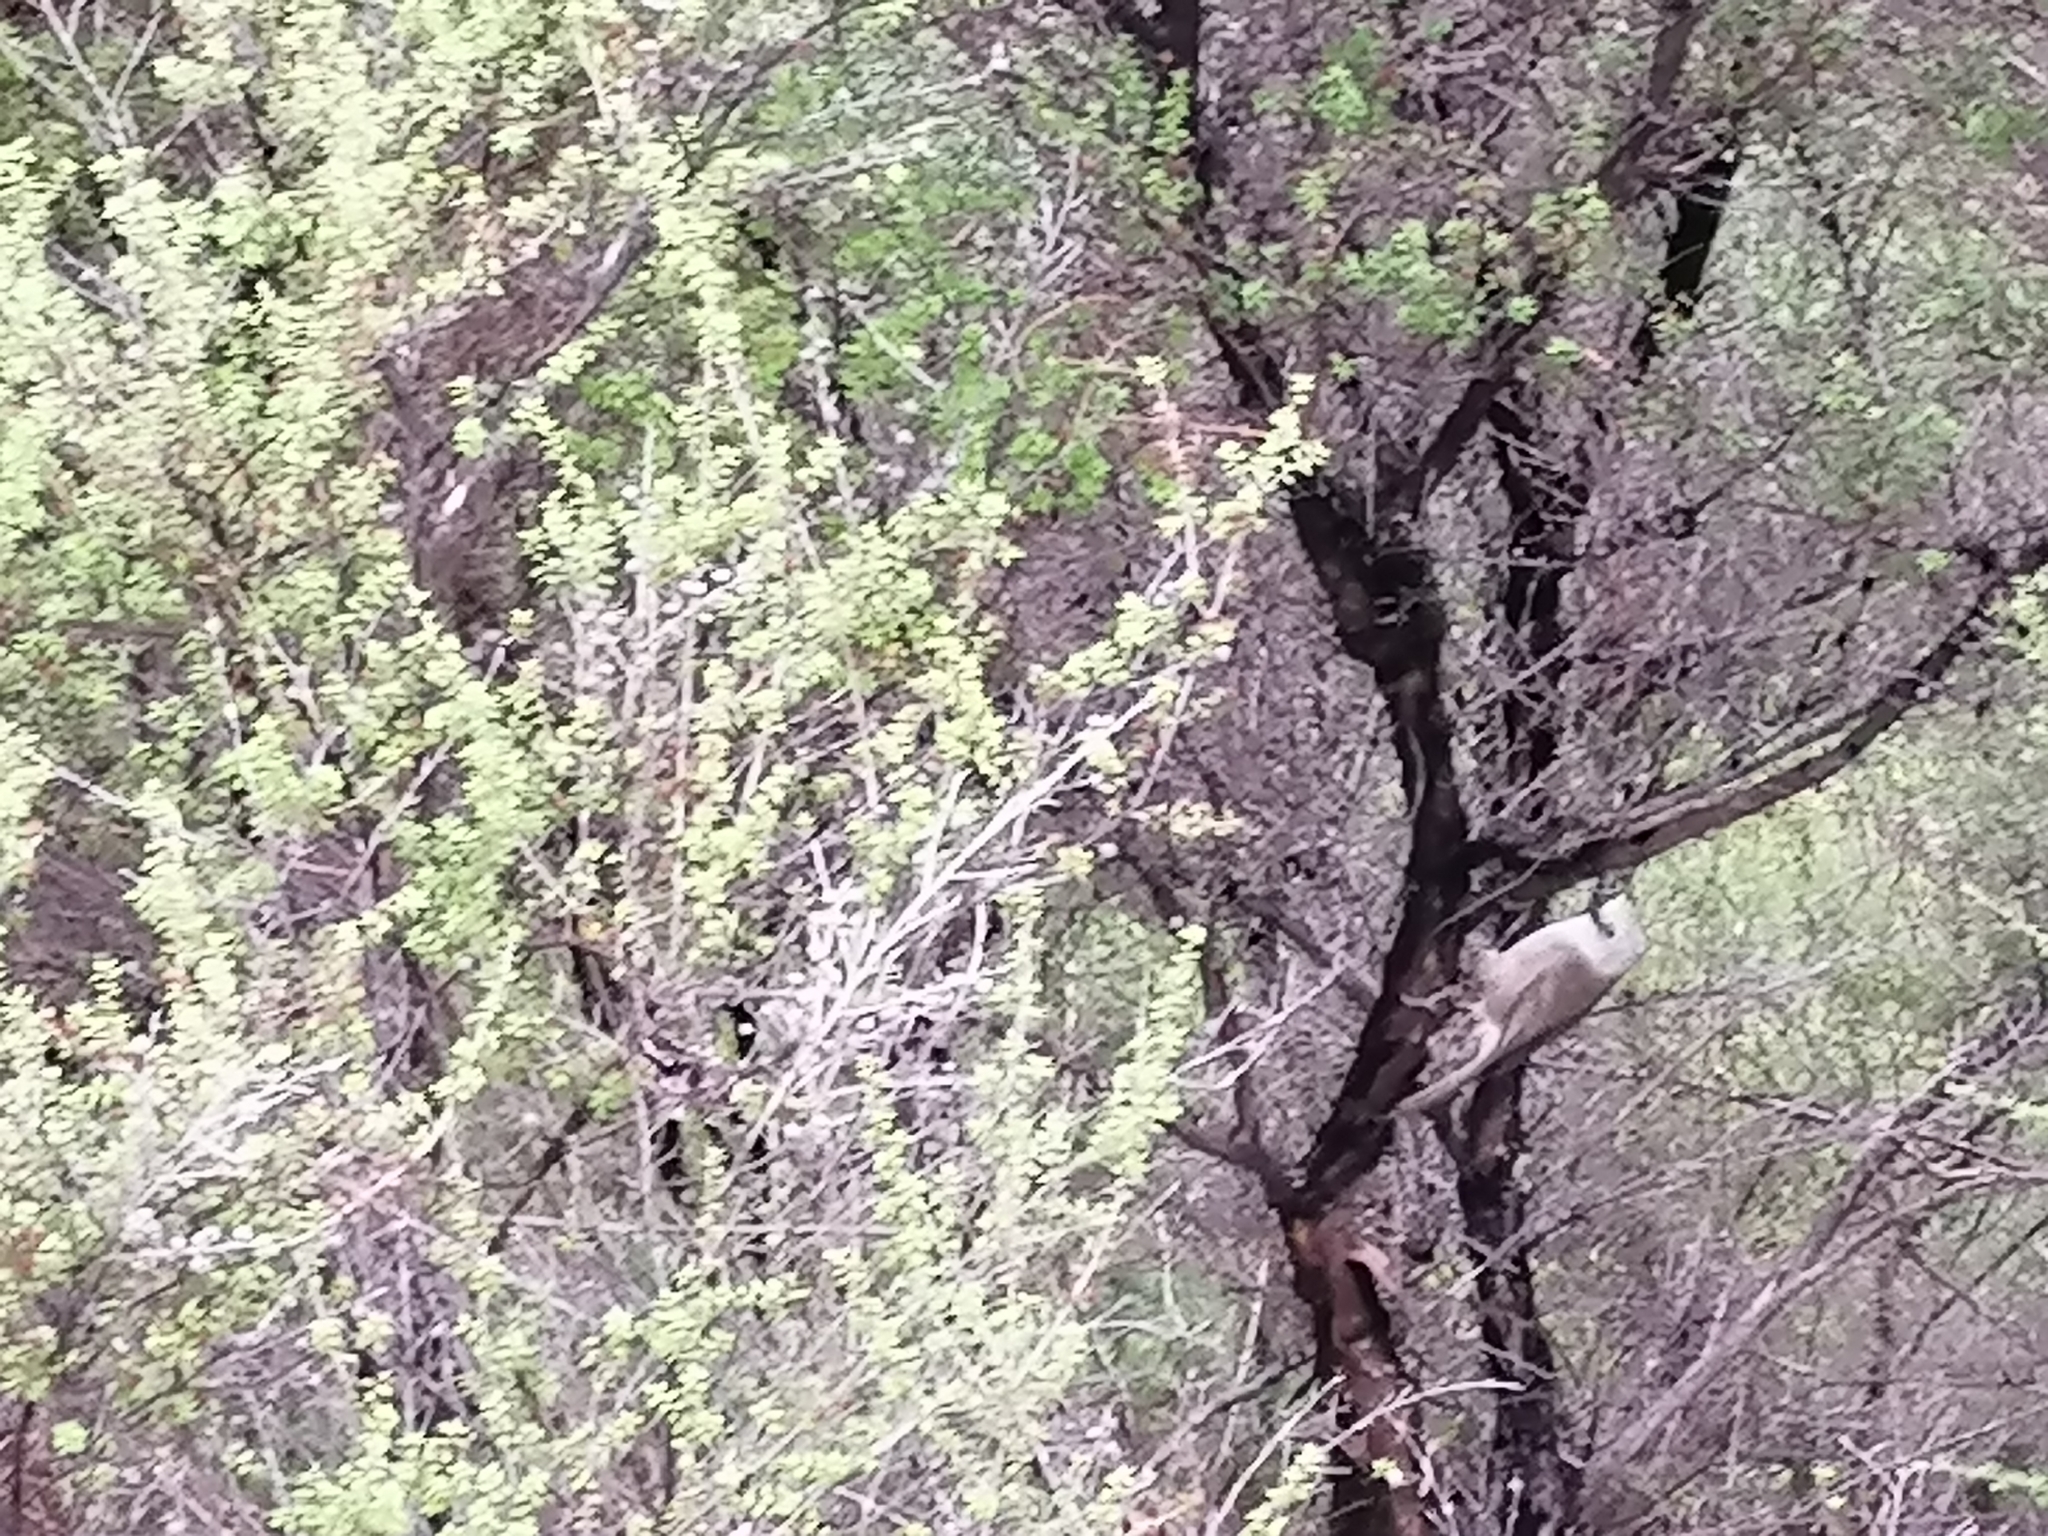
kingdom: Animalia
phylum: Chordata
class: Aves
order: Passeriformes
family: Acanthizidae
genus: Mohoua
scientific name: Mohoua albicilla
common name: Whitehead
